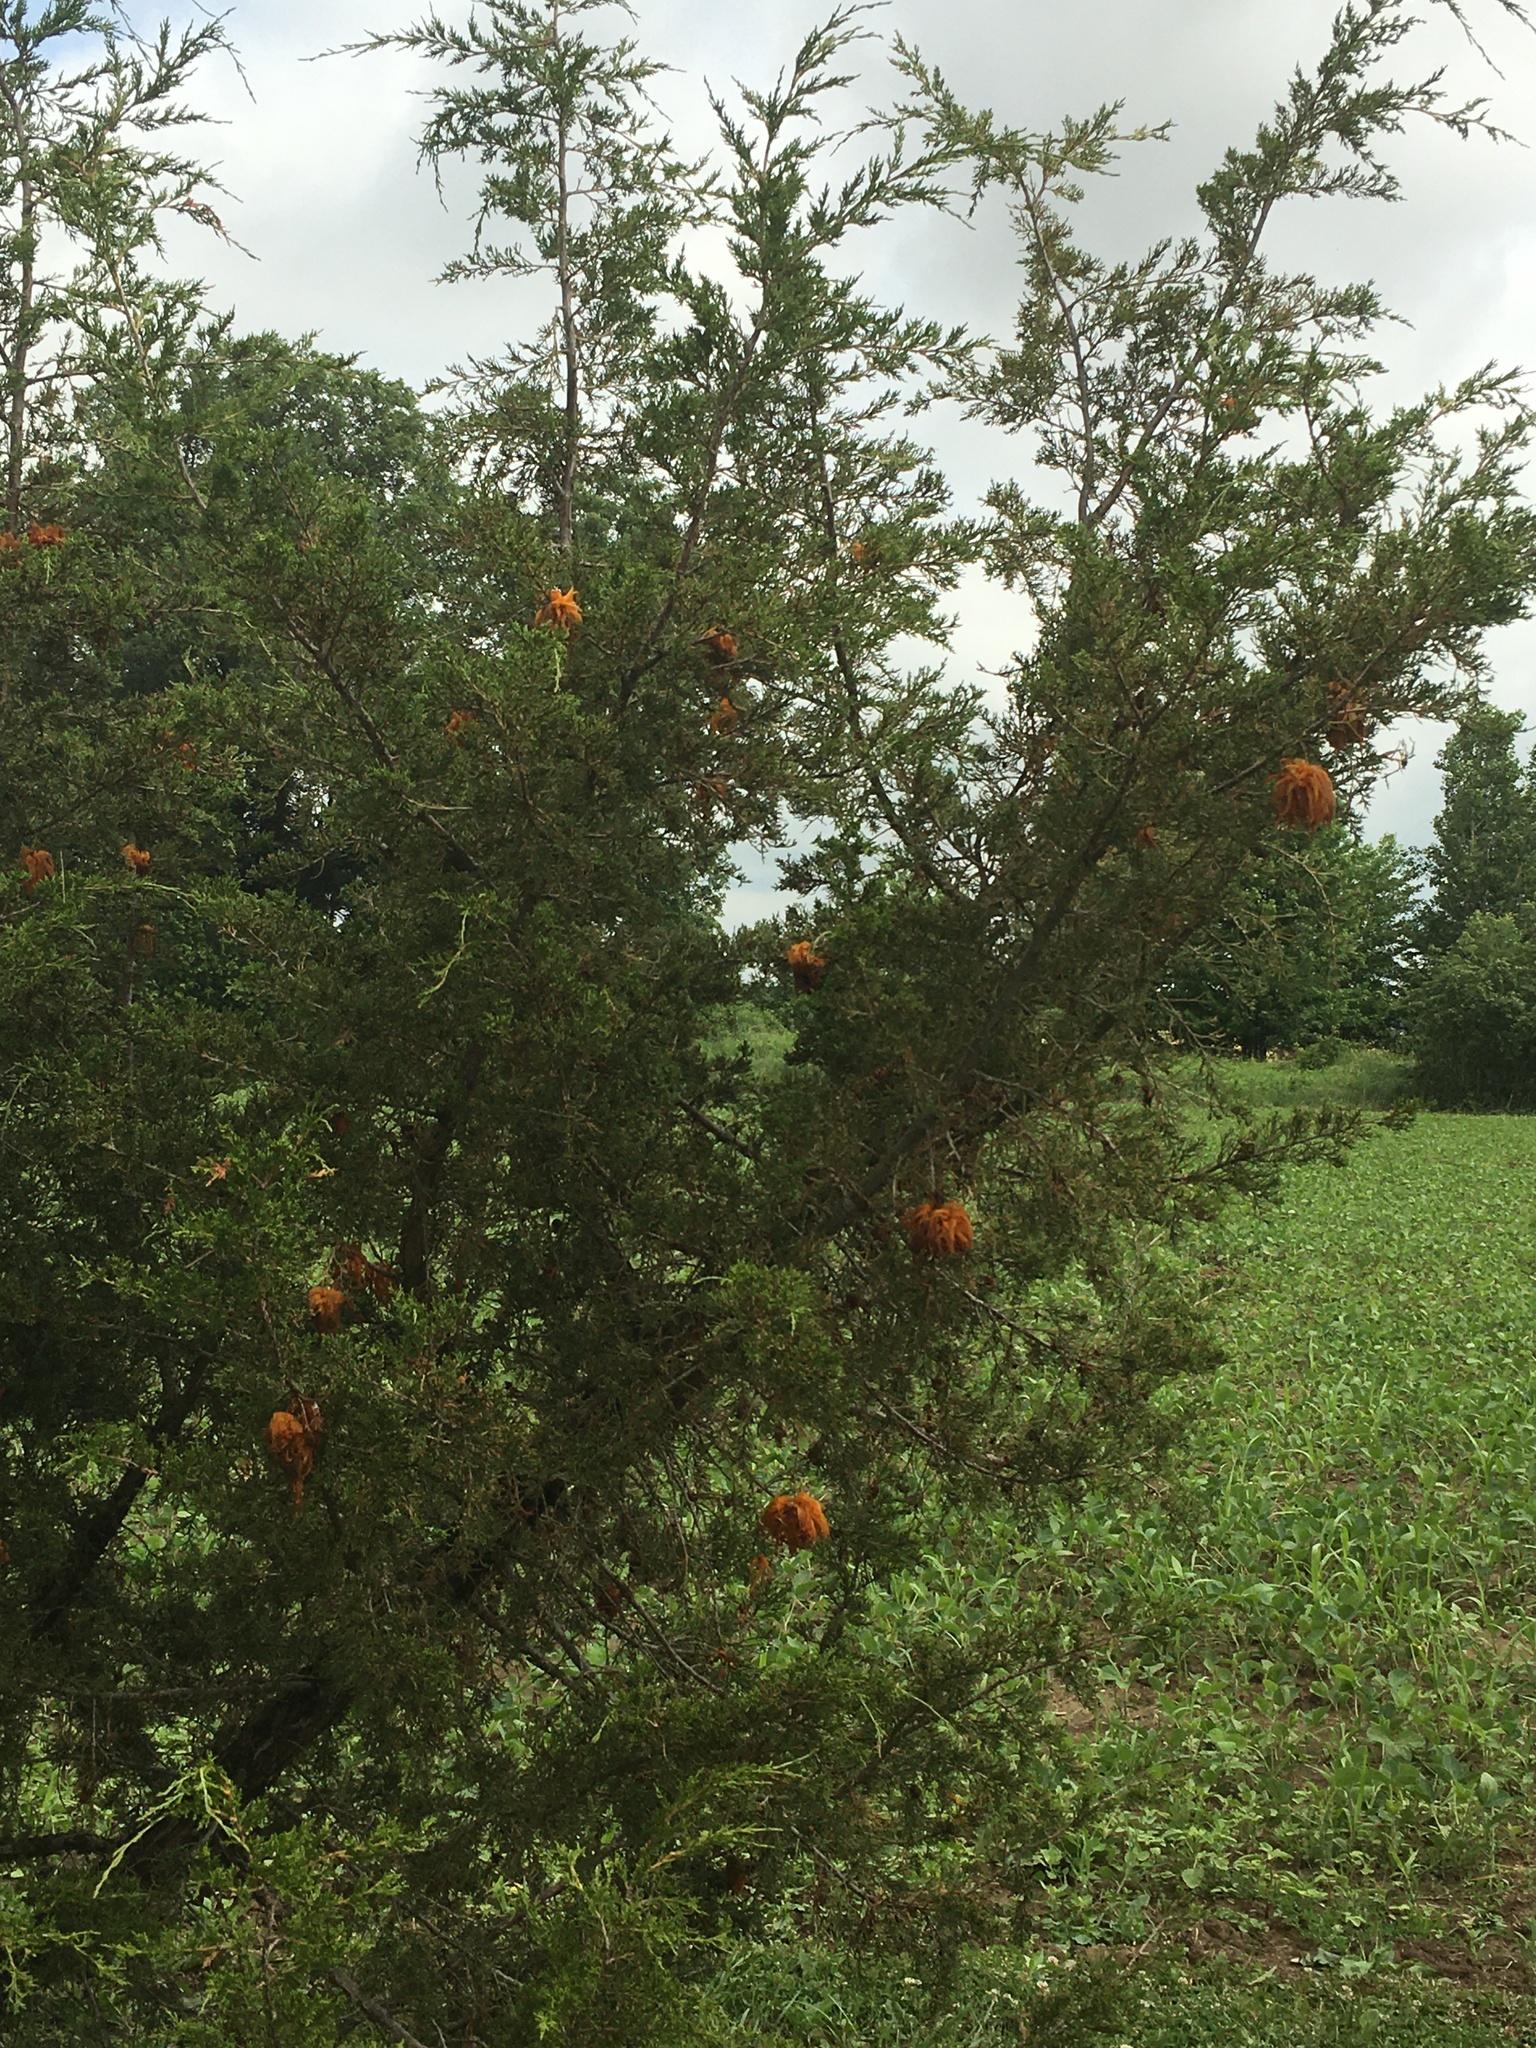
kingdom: Fungi
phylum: Basidiomycota
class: Pucciniomycetes
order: Pucciniales
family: Gymnosporangiaceae
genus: Gymnosporangium
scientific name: Gymnosporangium juniperi-virginianae
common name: Juniper-apple rust
